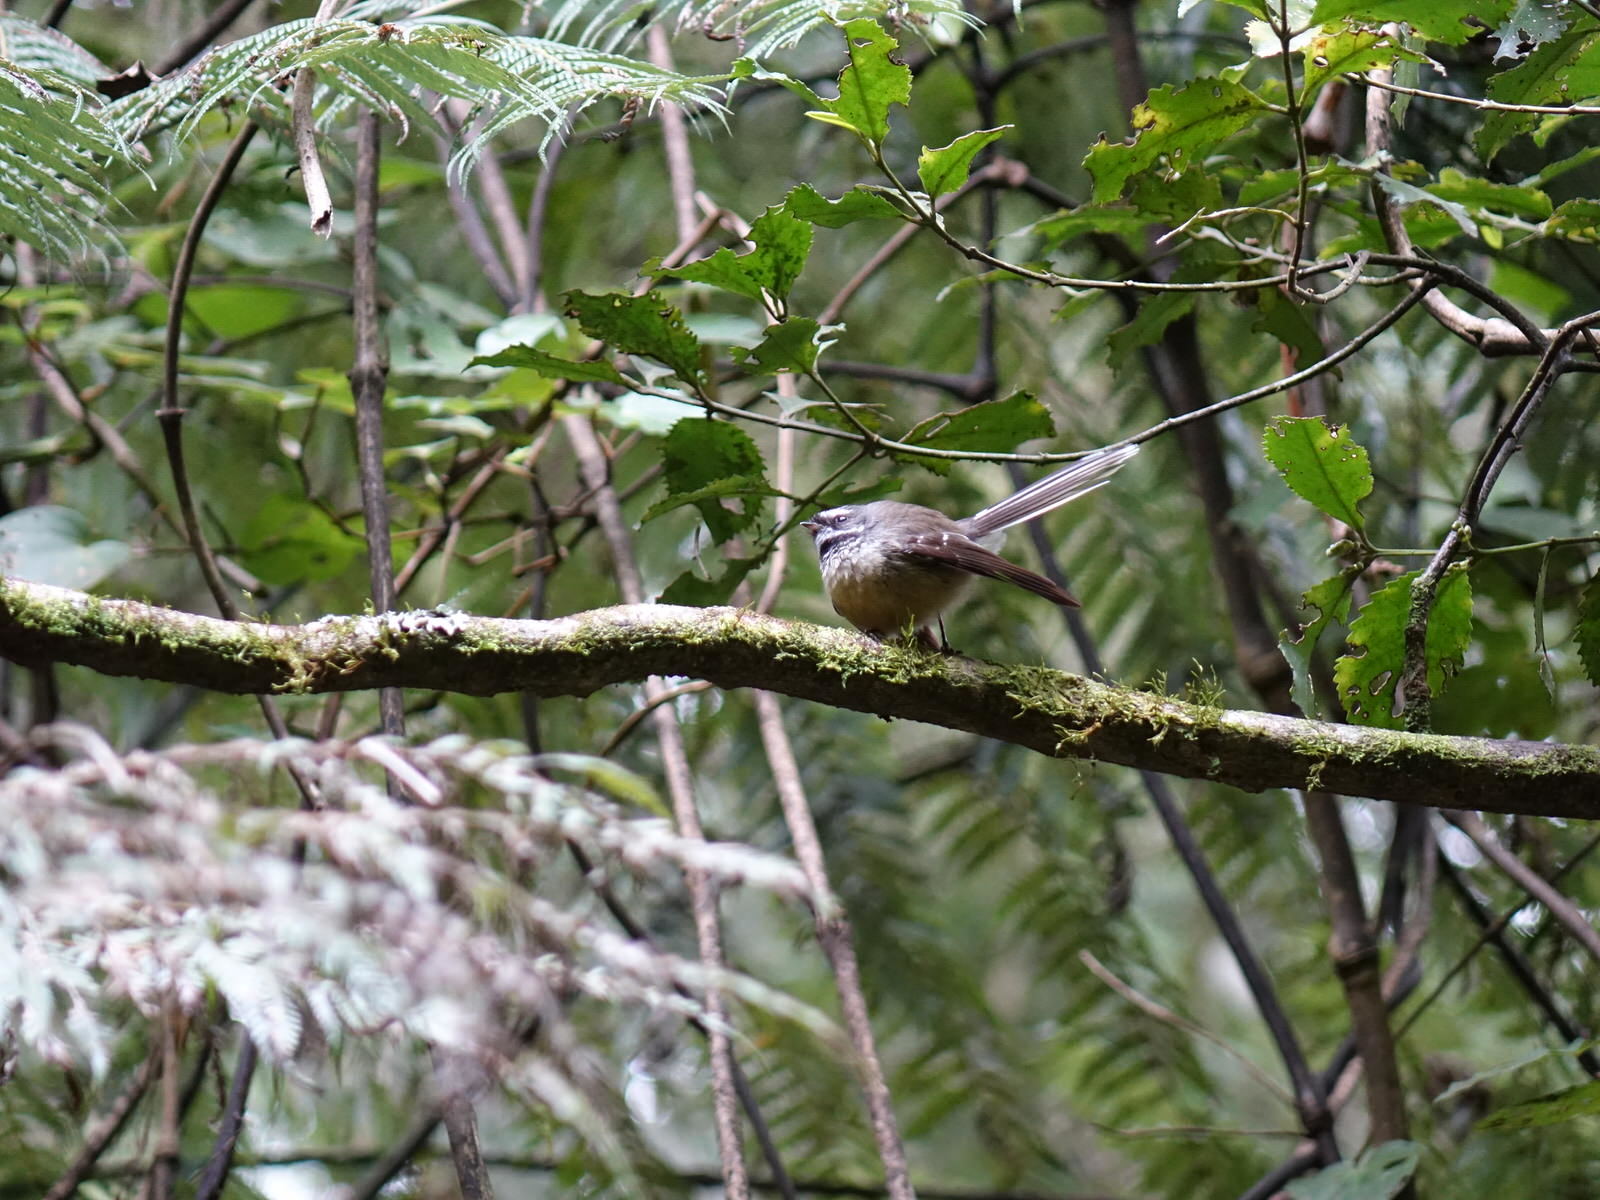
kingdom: Animalia
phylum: Chordata
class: Aves
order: Passeriformes
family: Rhipiduridae
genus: Rhipidura
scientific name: Rhipidura fuliginosa
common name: New zealand fantail
